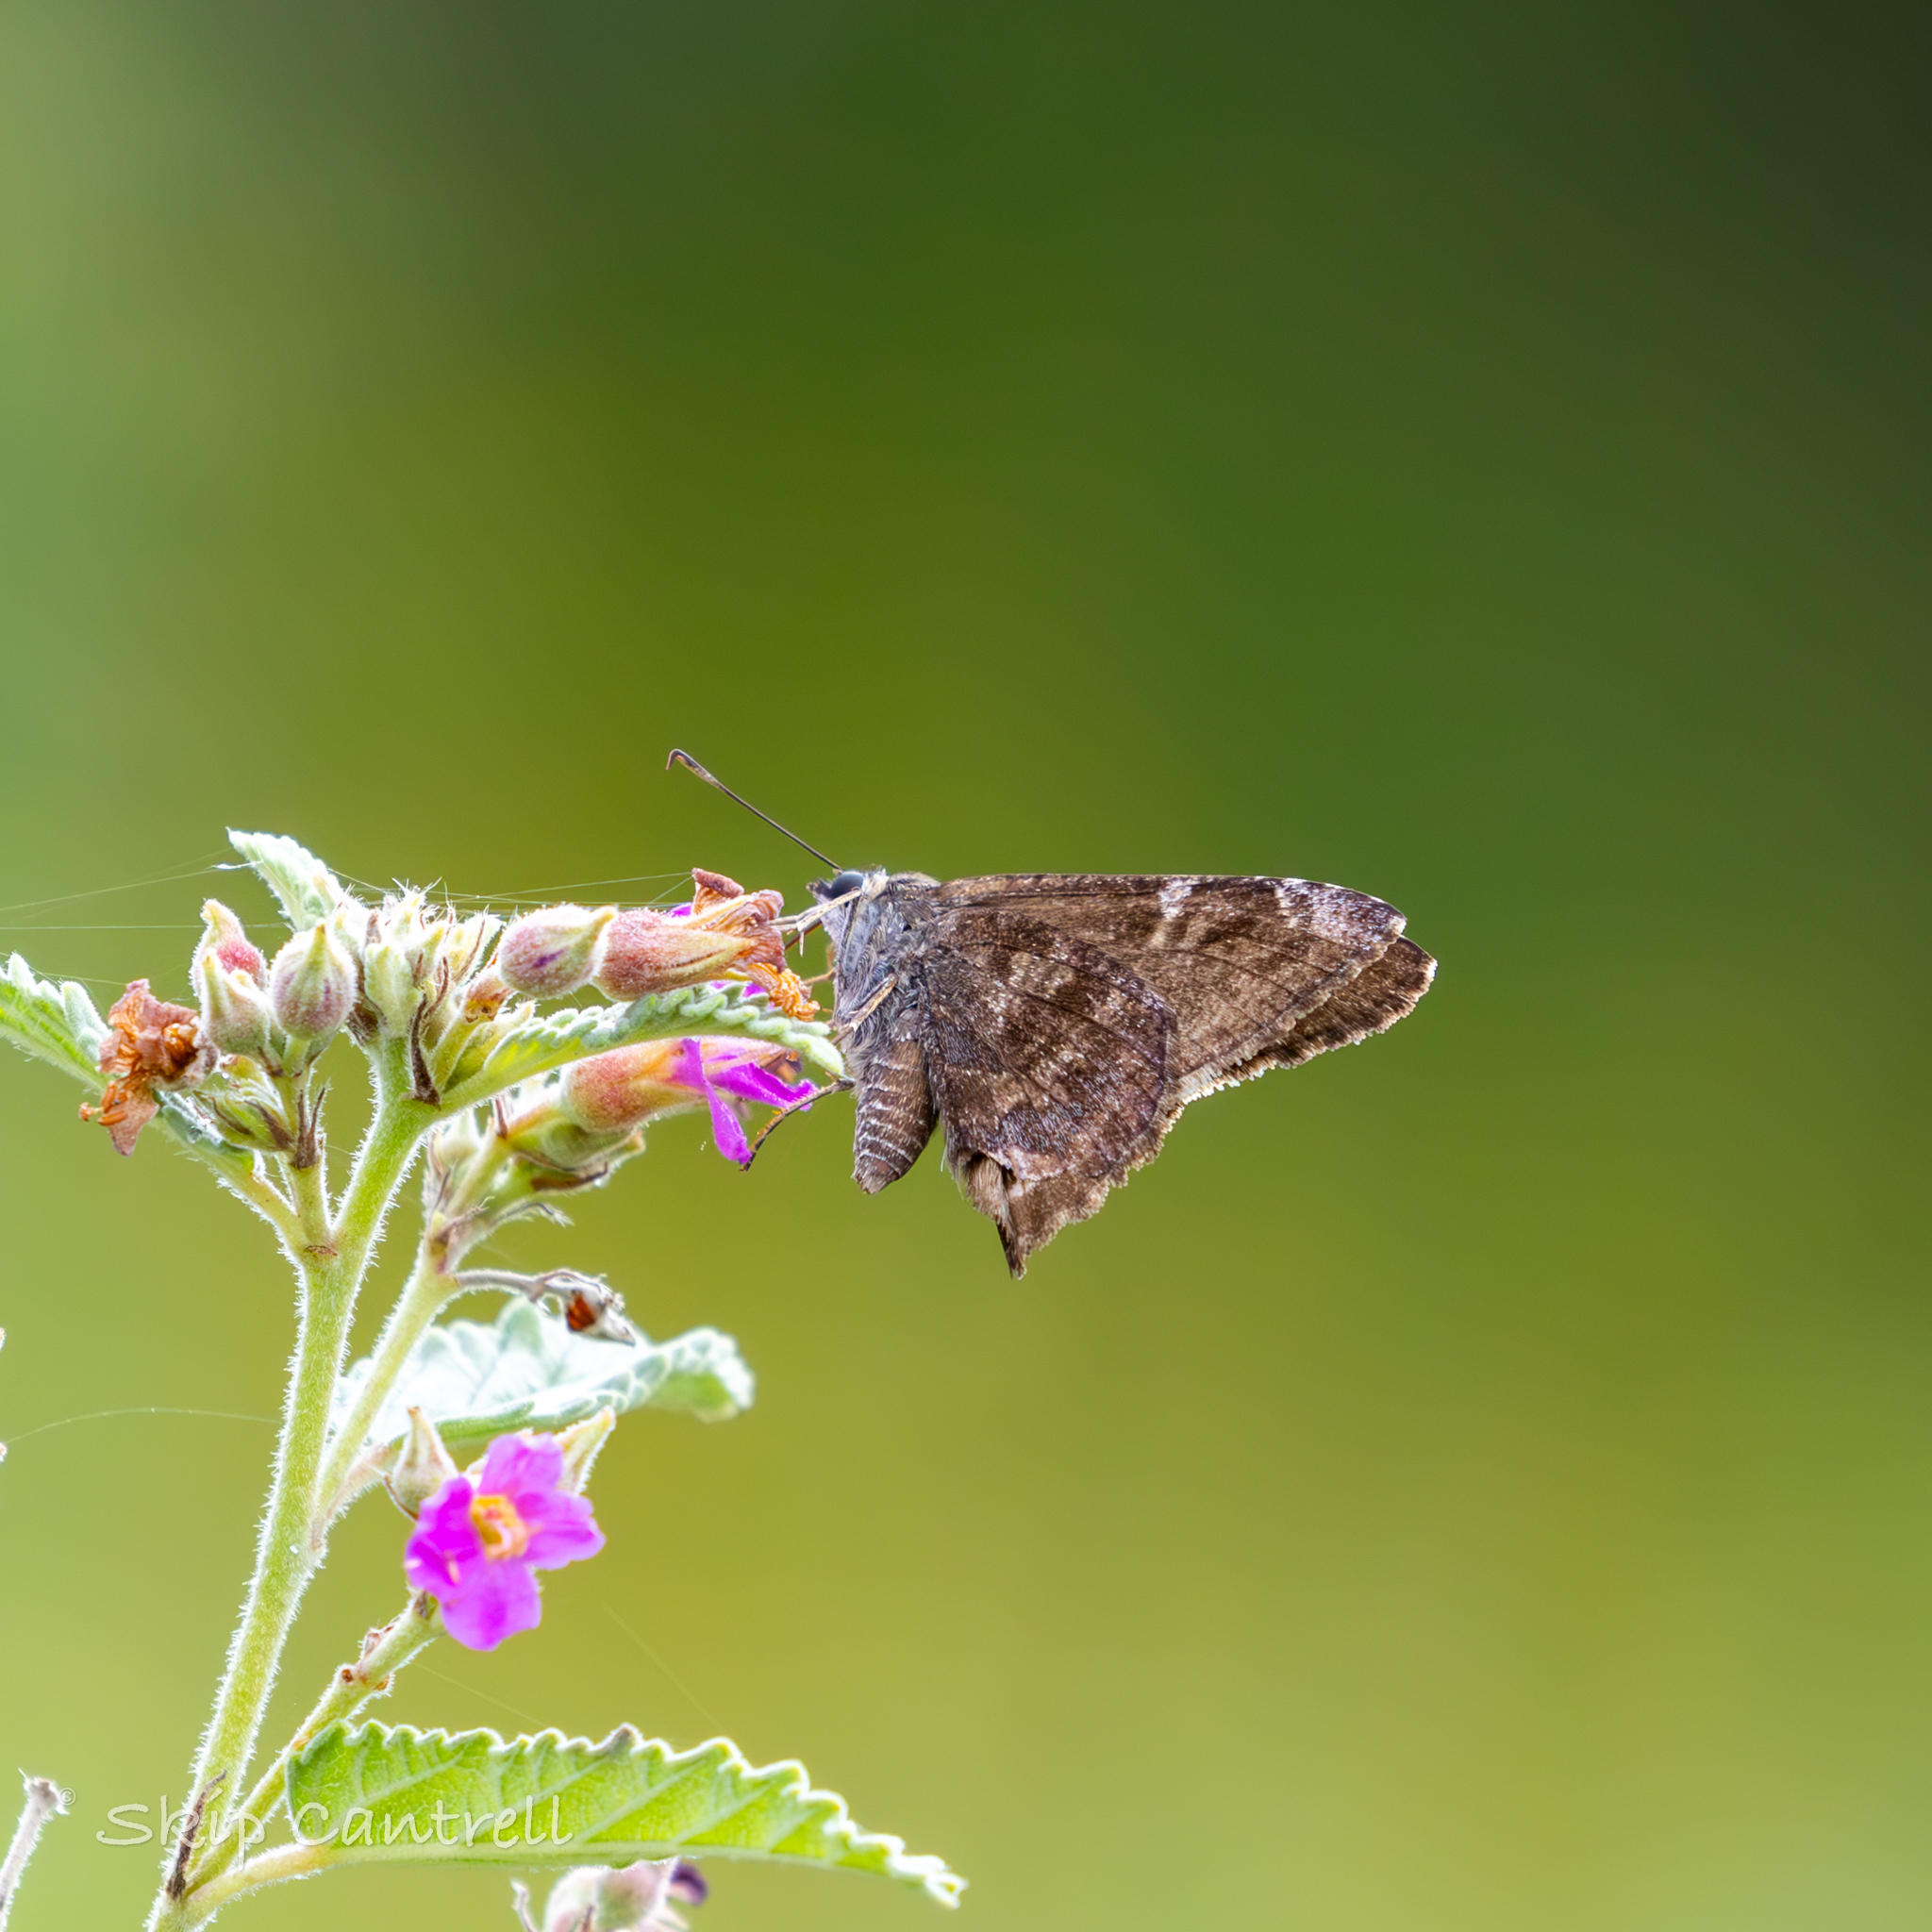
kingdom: Animalia
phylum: Arthropoda
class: Insecta
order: Lepidoptera
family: Hesperiidae
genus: Caicella
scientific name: Caicella calchas
